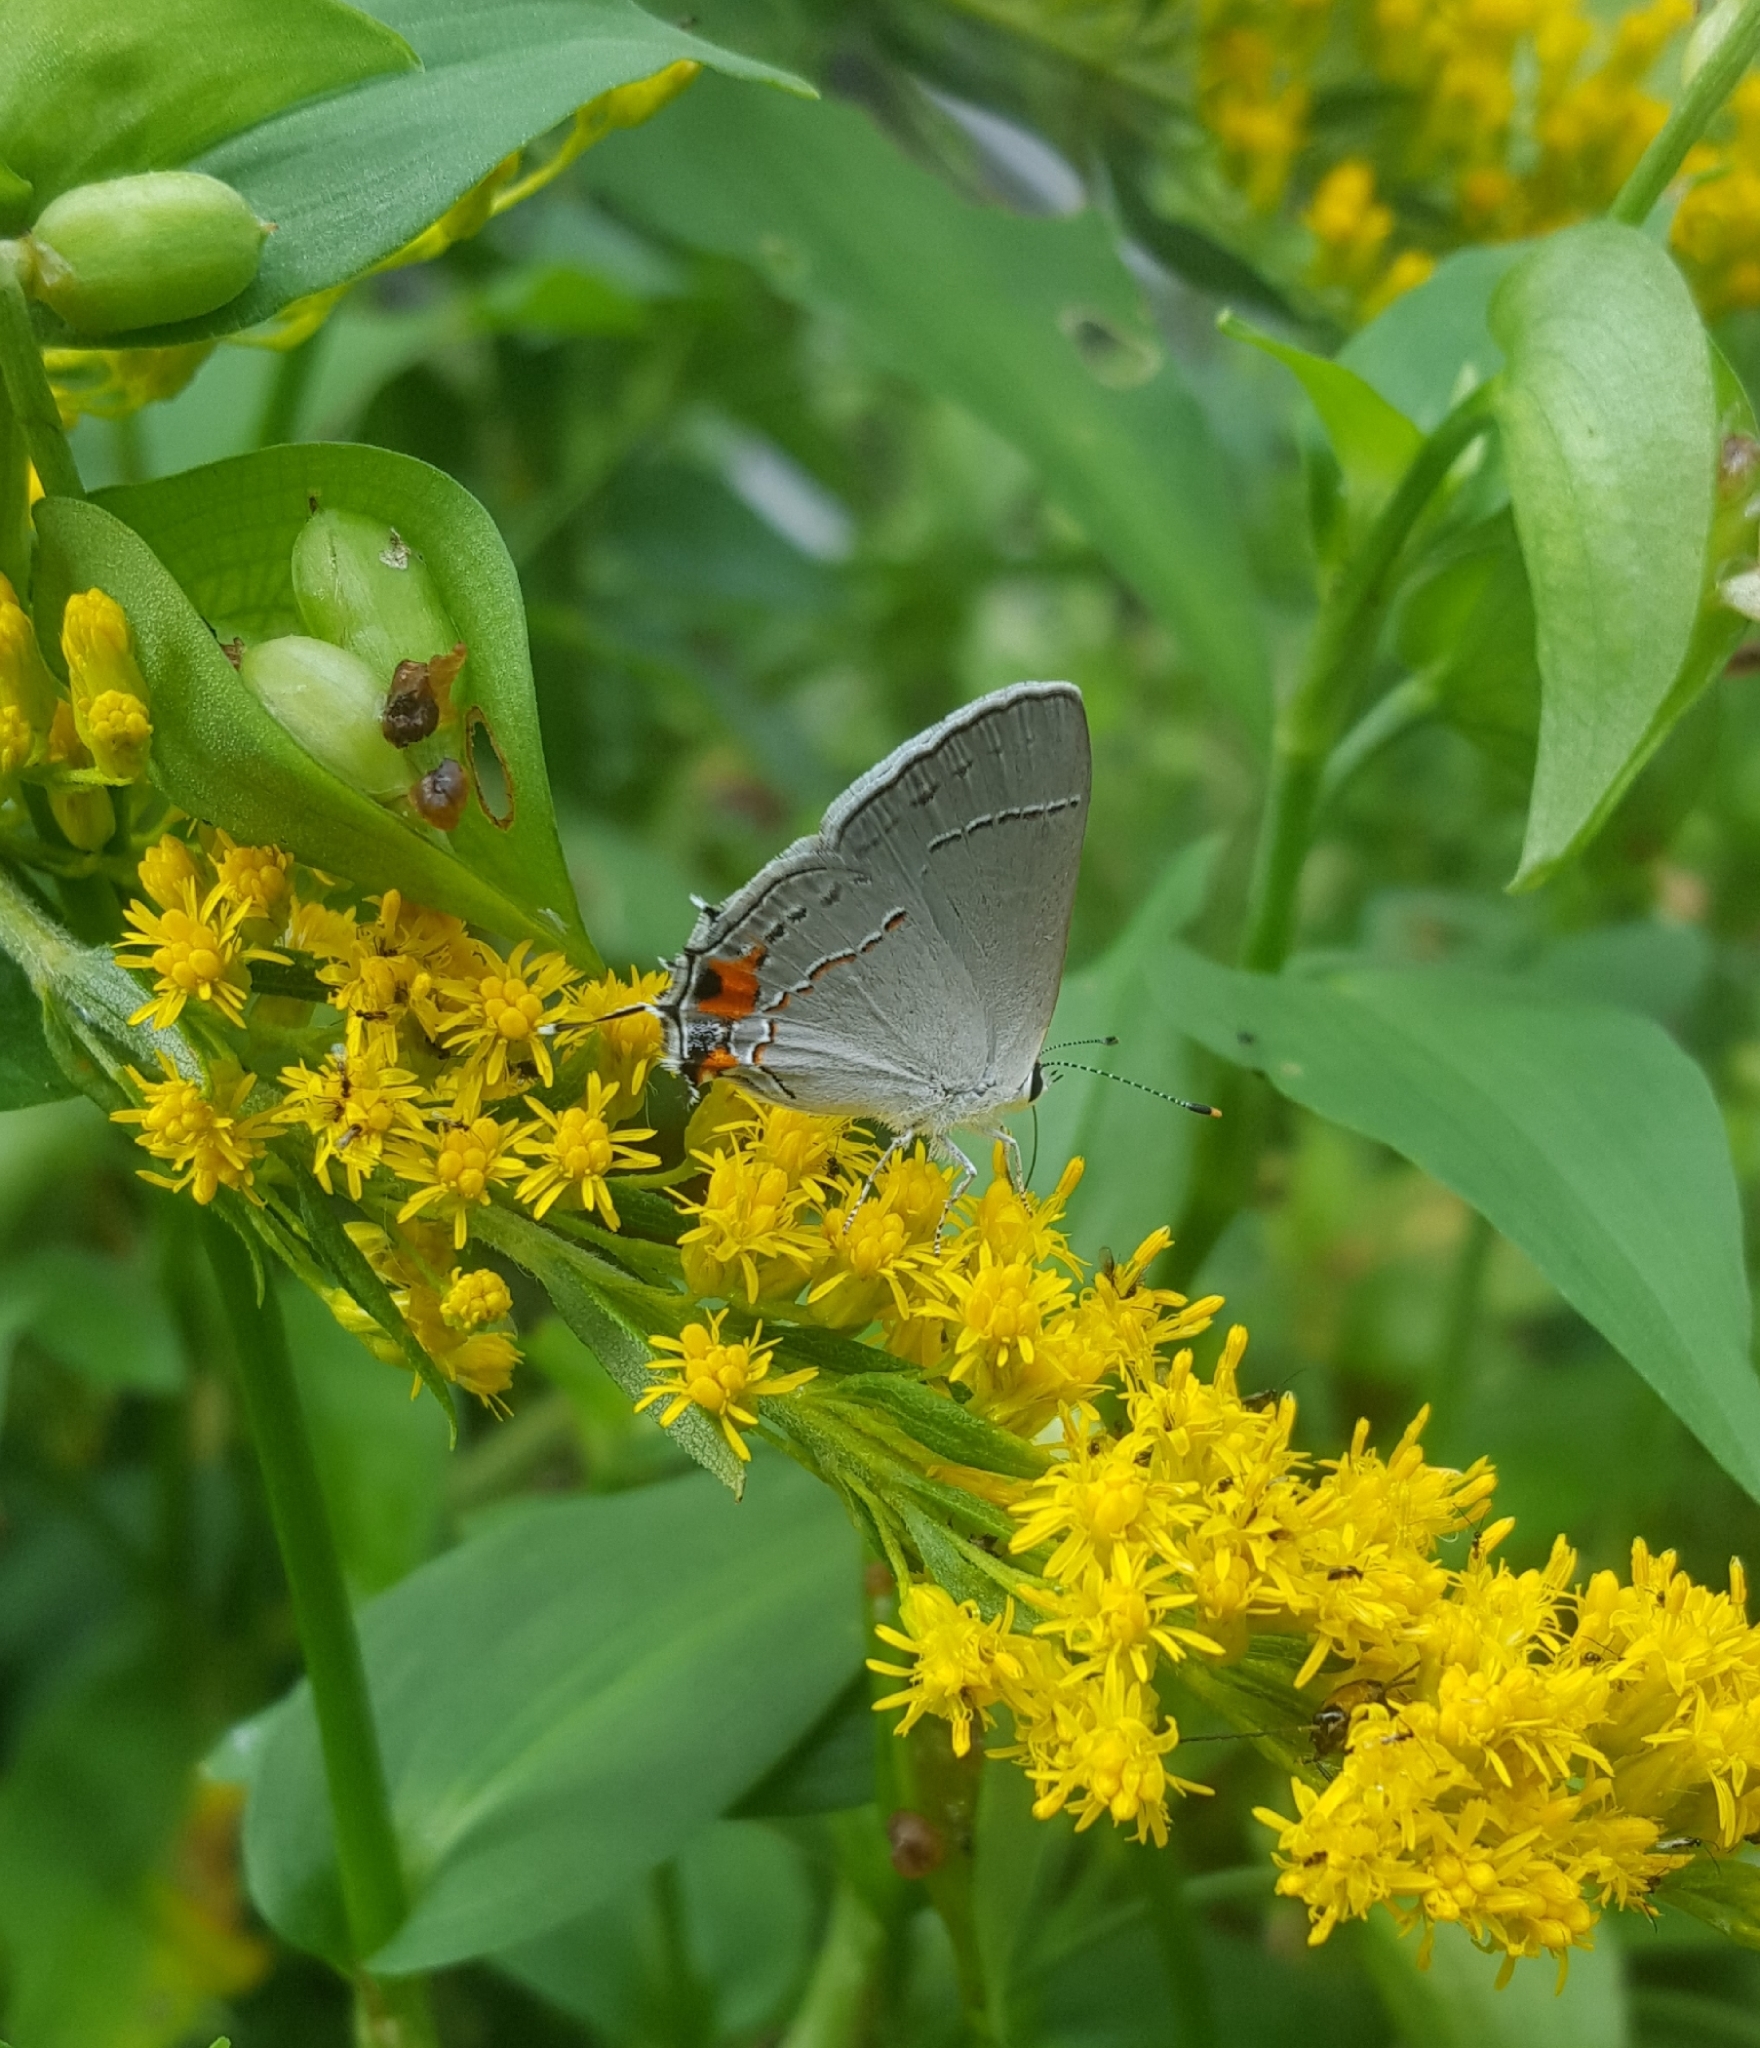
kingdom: Animalia
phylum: Arthropoda
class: Insecta
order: Lepidoptera
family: Lycaenidae
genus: Strymon
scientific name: Strymon melinus
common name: Gray hairstreak
